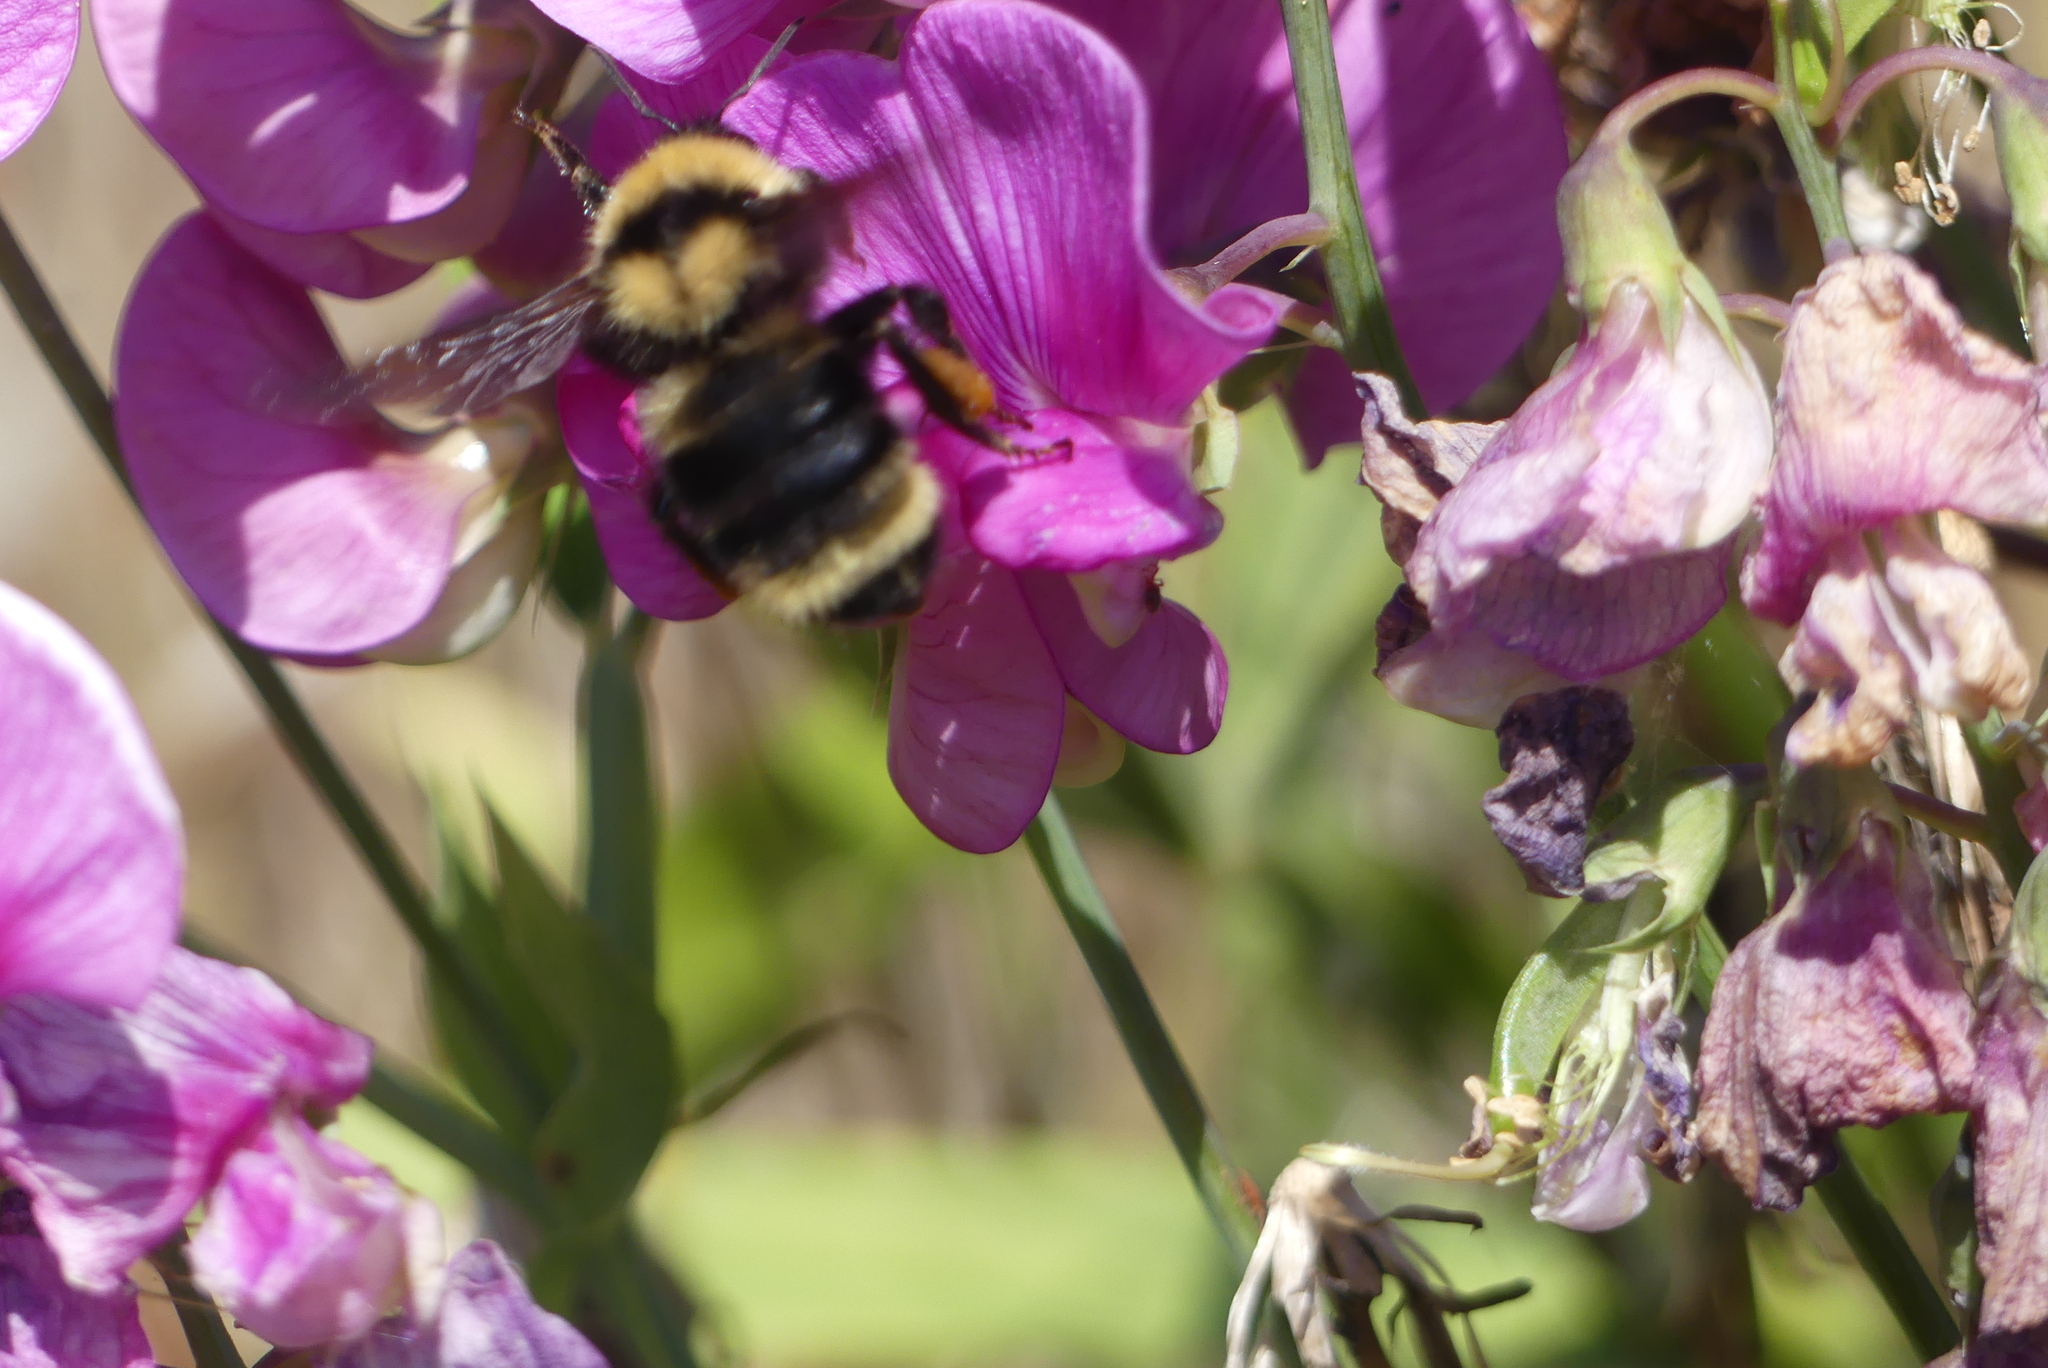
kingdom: Animalia
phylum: Arthropoda
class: Insecta
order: Hymenoptera
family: Apidae
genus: Bombus
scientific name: Bombus californicus
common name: California bumble bee
